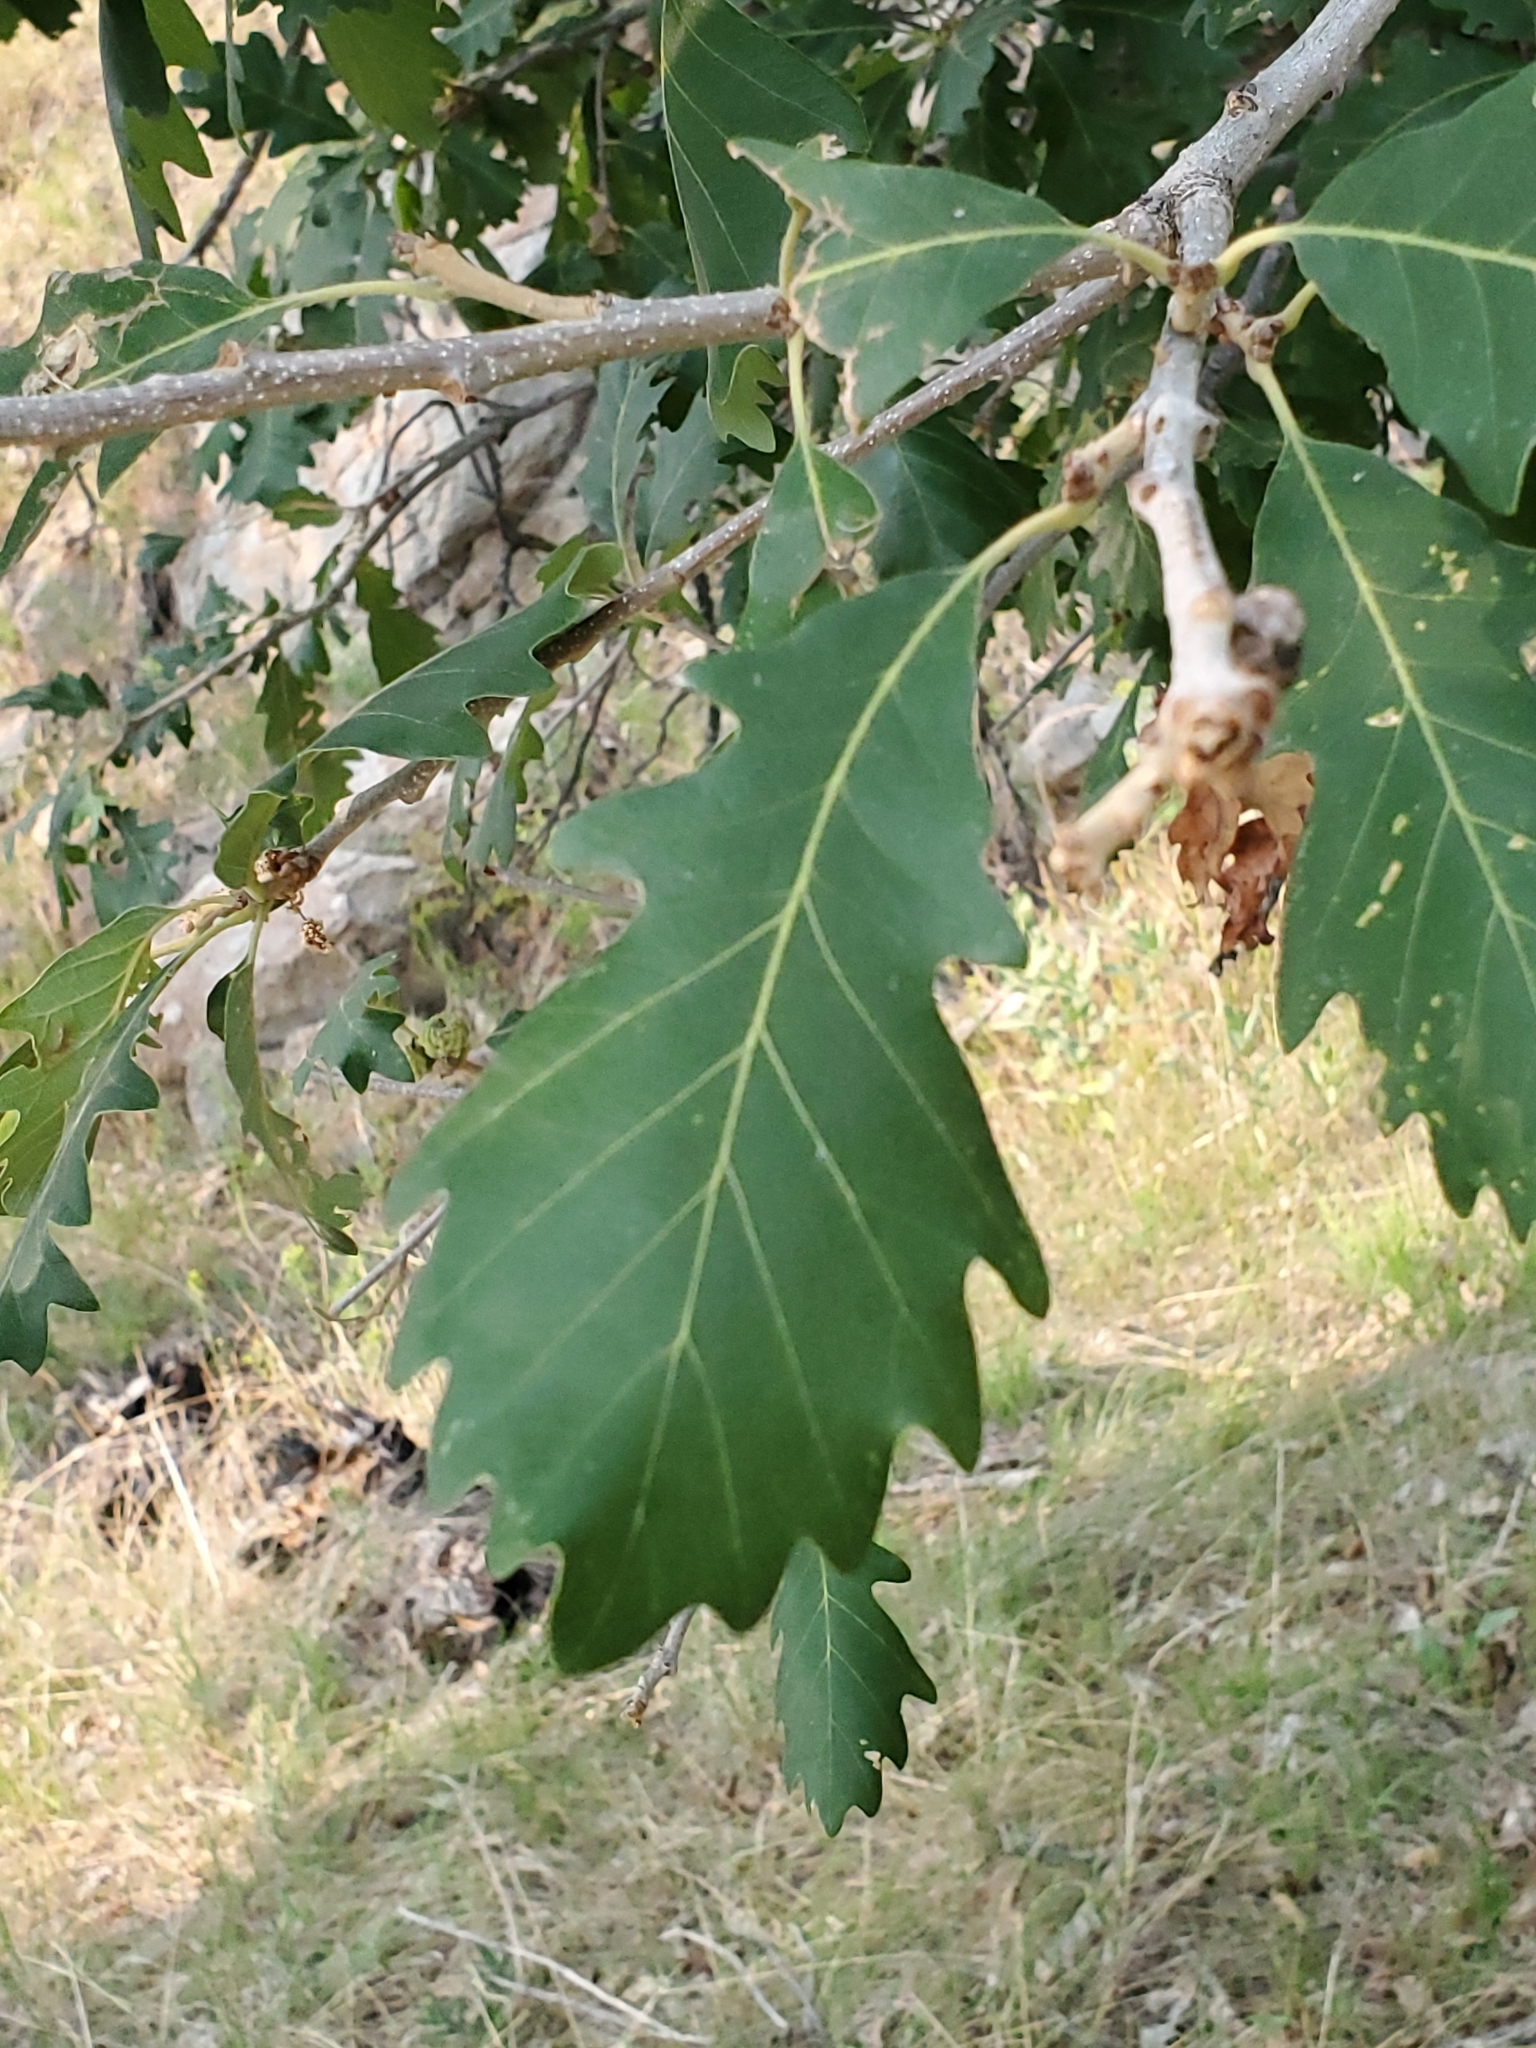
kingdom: Plantae
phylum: Tracheophyta
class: Magnoliopsida
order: Fagales
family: Fagaceae
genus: Quercus
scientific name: Quercus macrocarpa
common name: Bur oak
